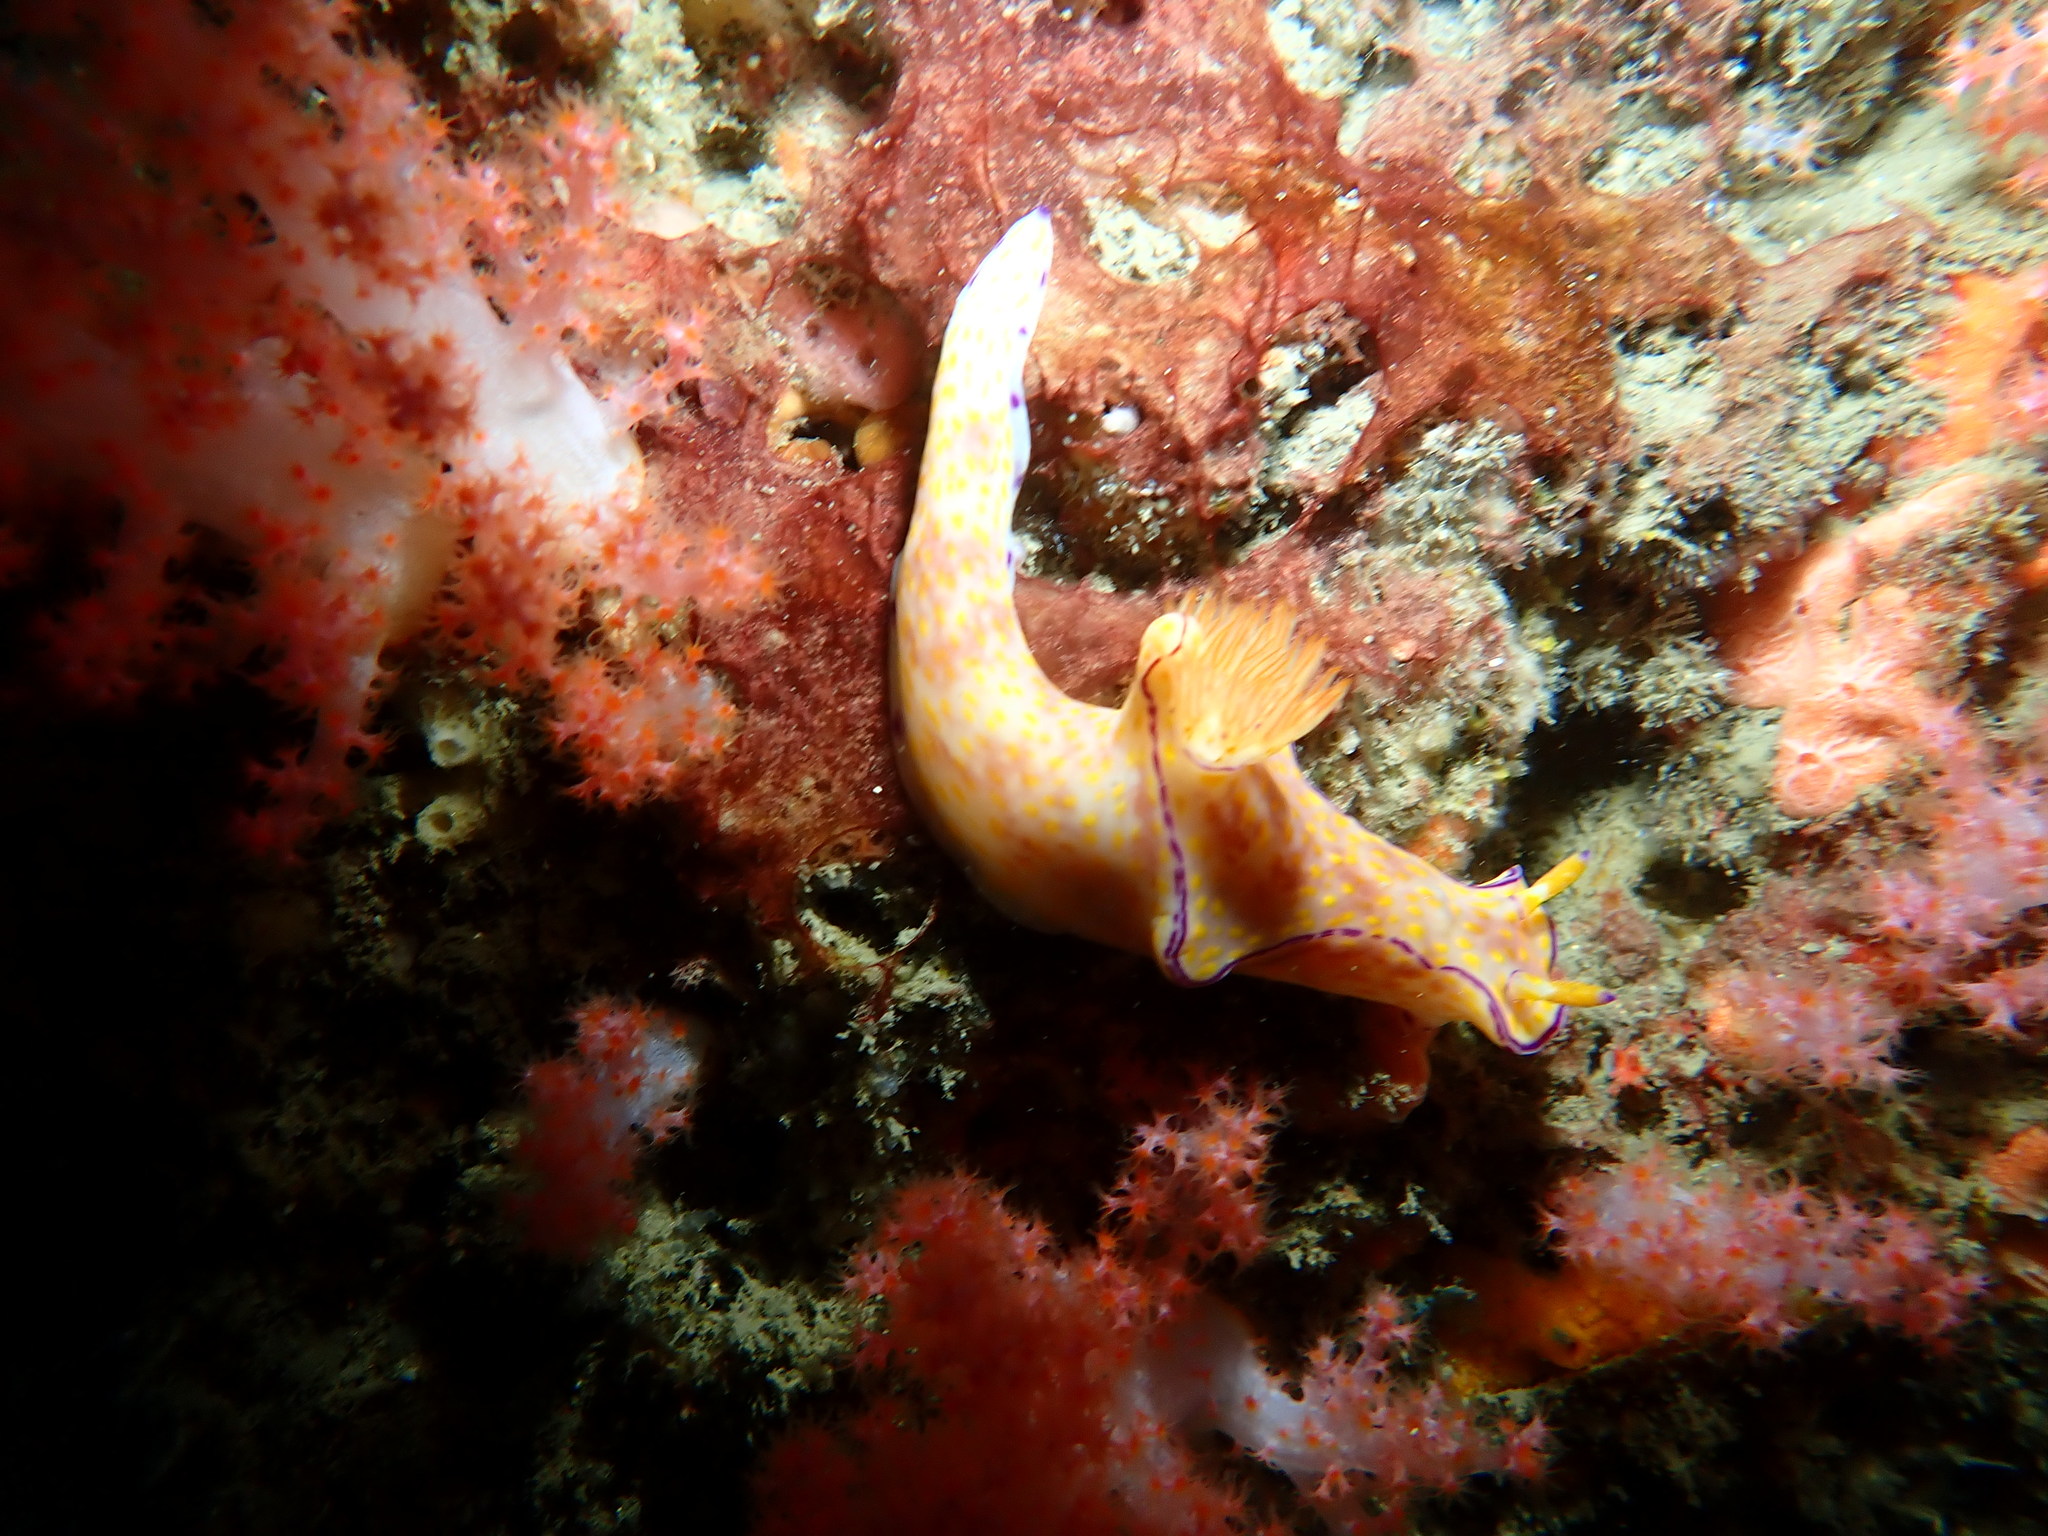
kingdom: Animalia
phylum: Mollusca
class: Gastropoda
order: Nudibranchia
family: Chromodorididae
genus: Ceratosoma
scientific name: Ceratosoma trilobatum
